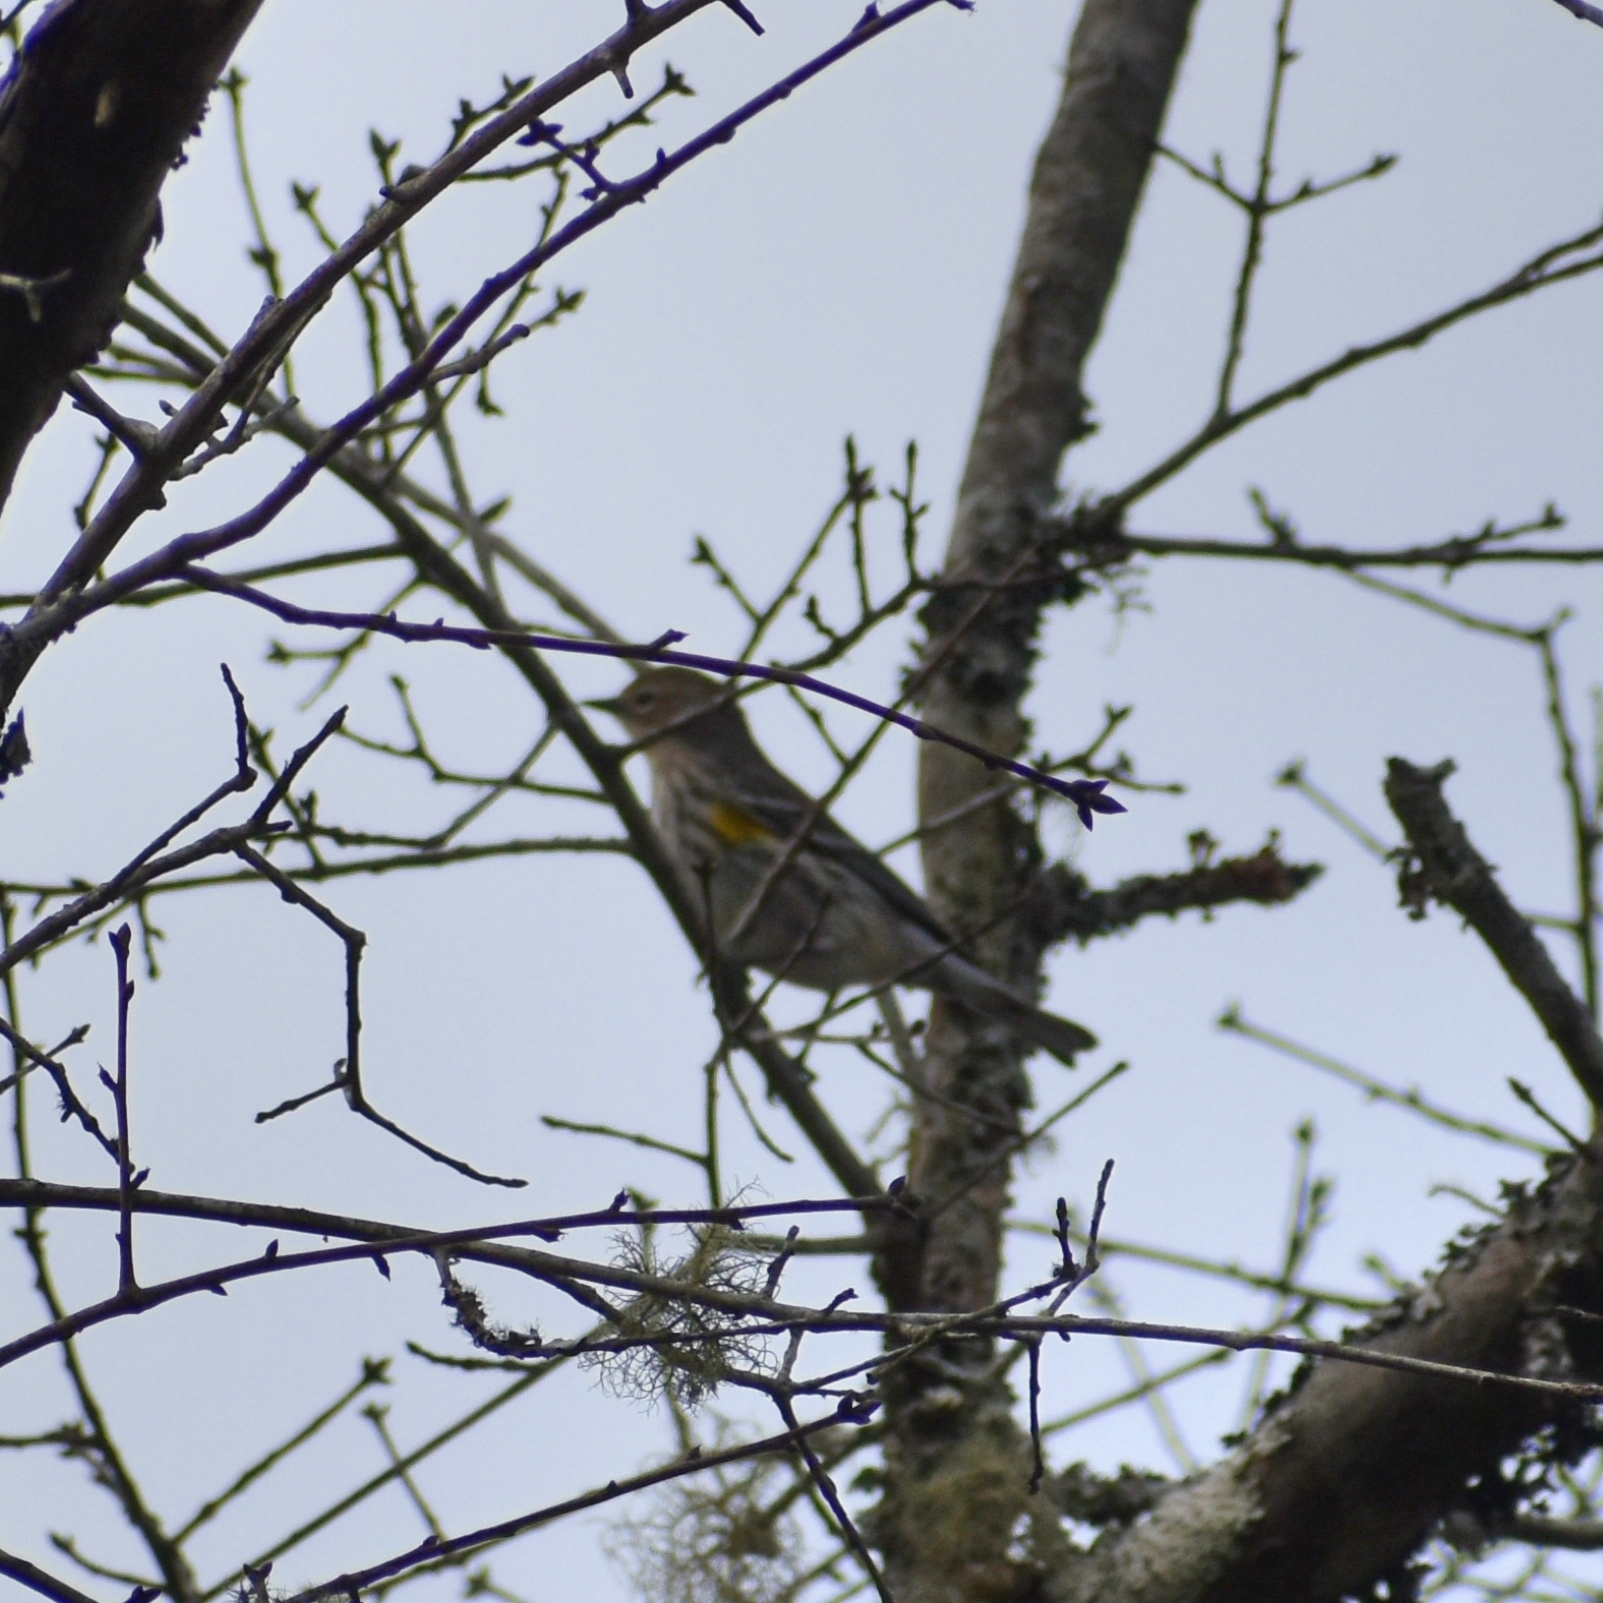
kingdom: Animalia
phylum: Chordata
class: Aves
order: Passeriformes
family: Parulidae
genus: Setophaga
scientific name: Setophaga coronata
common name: Myrtle warbler
